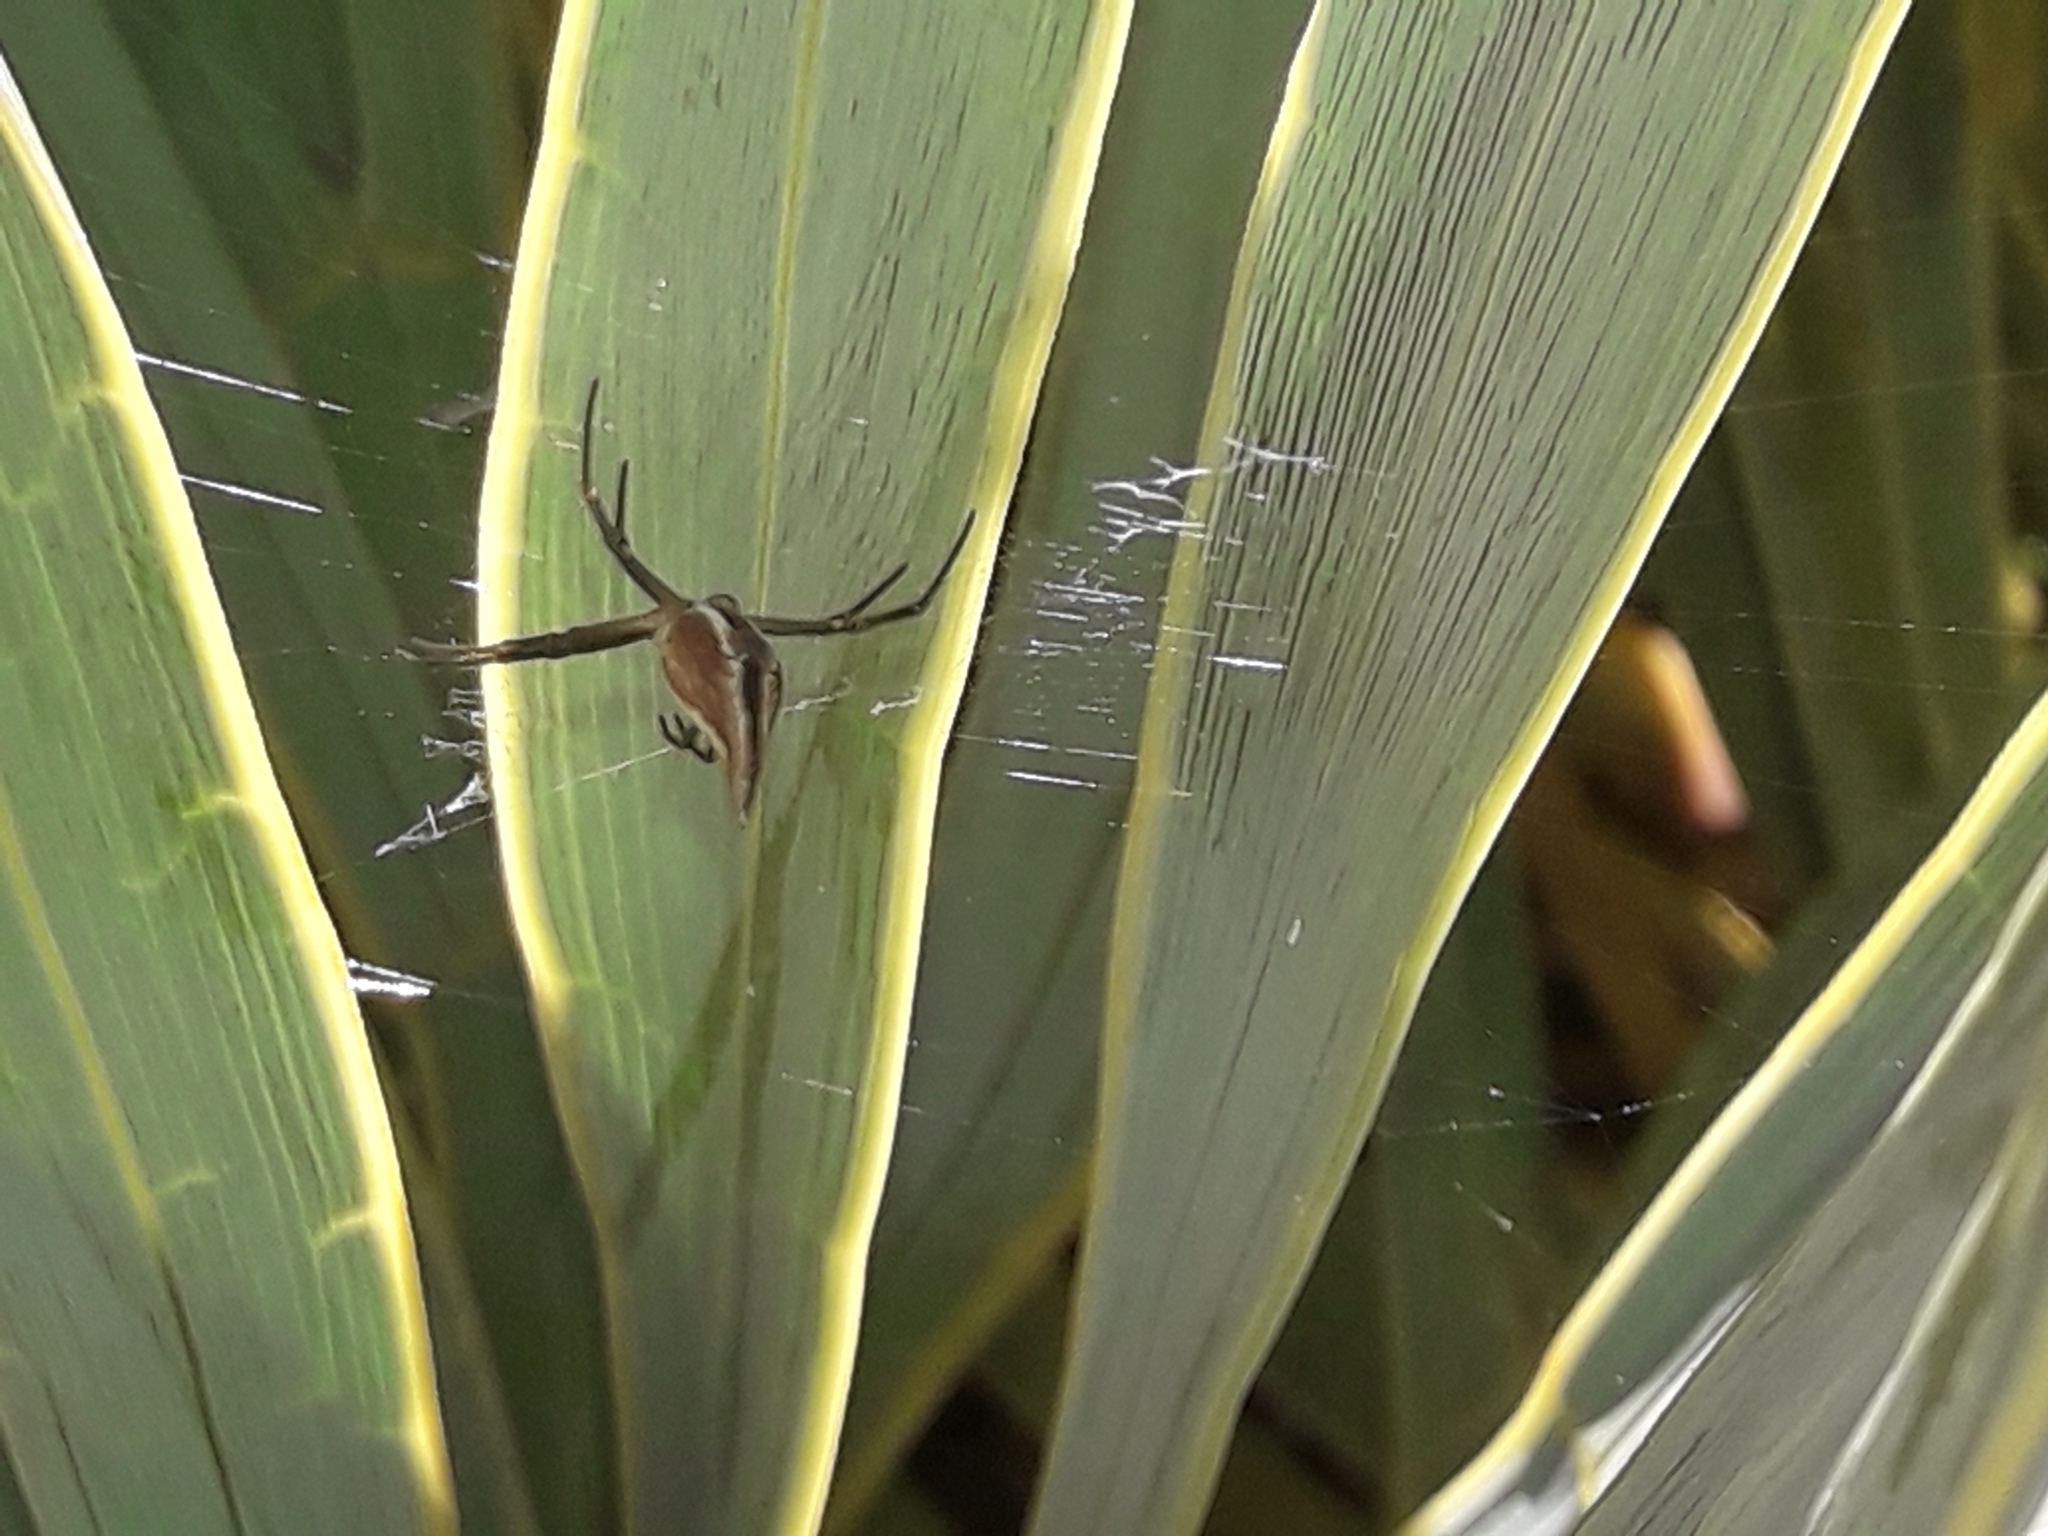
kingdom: Animalia
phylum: Arthropoda
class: Arachnida
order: Araneae
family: Araneidae
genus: Argiope
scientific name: Argiope protensa
